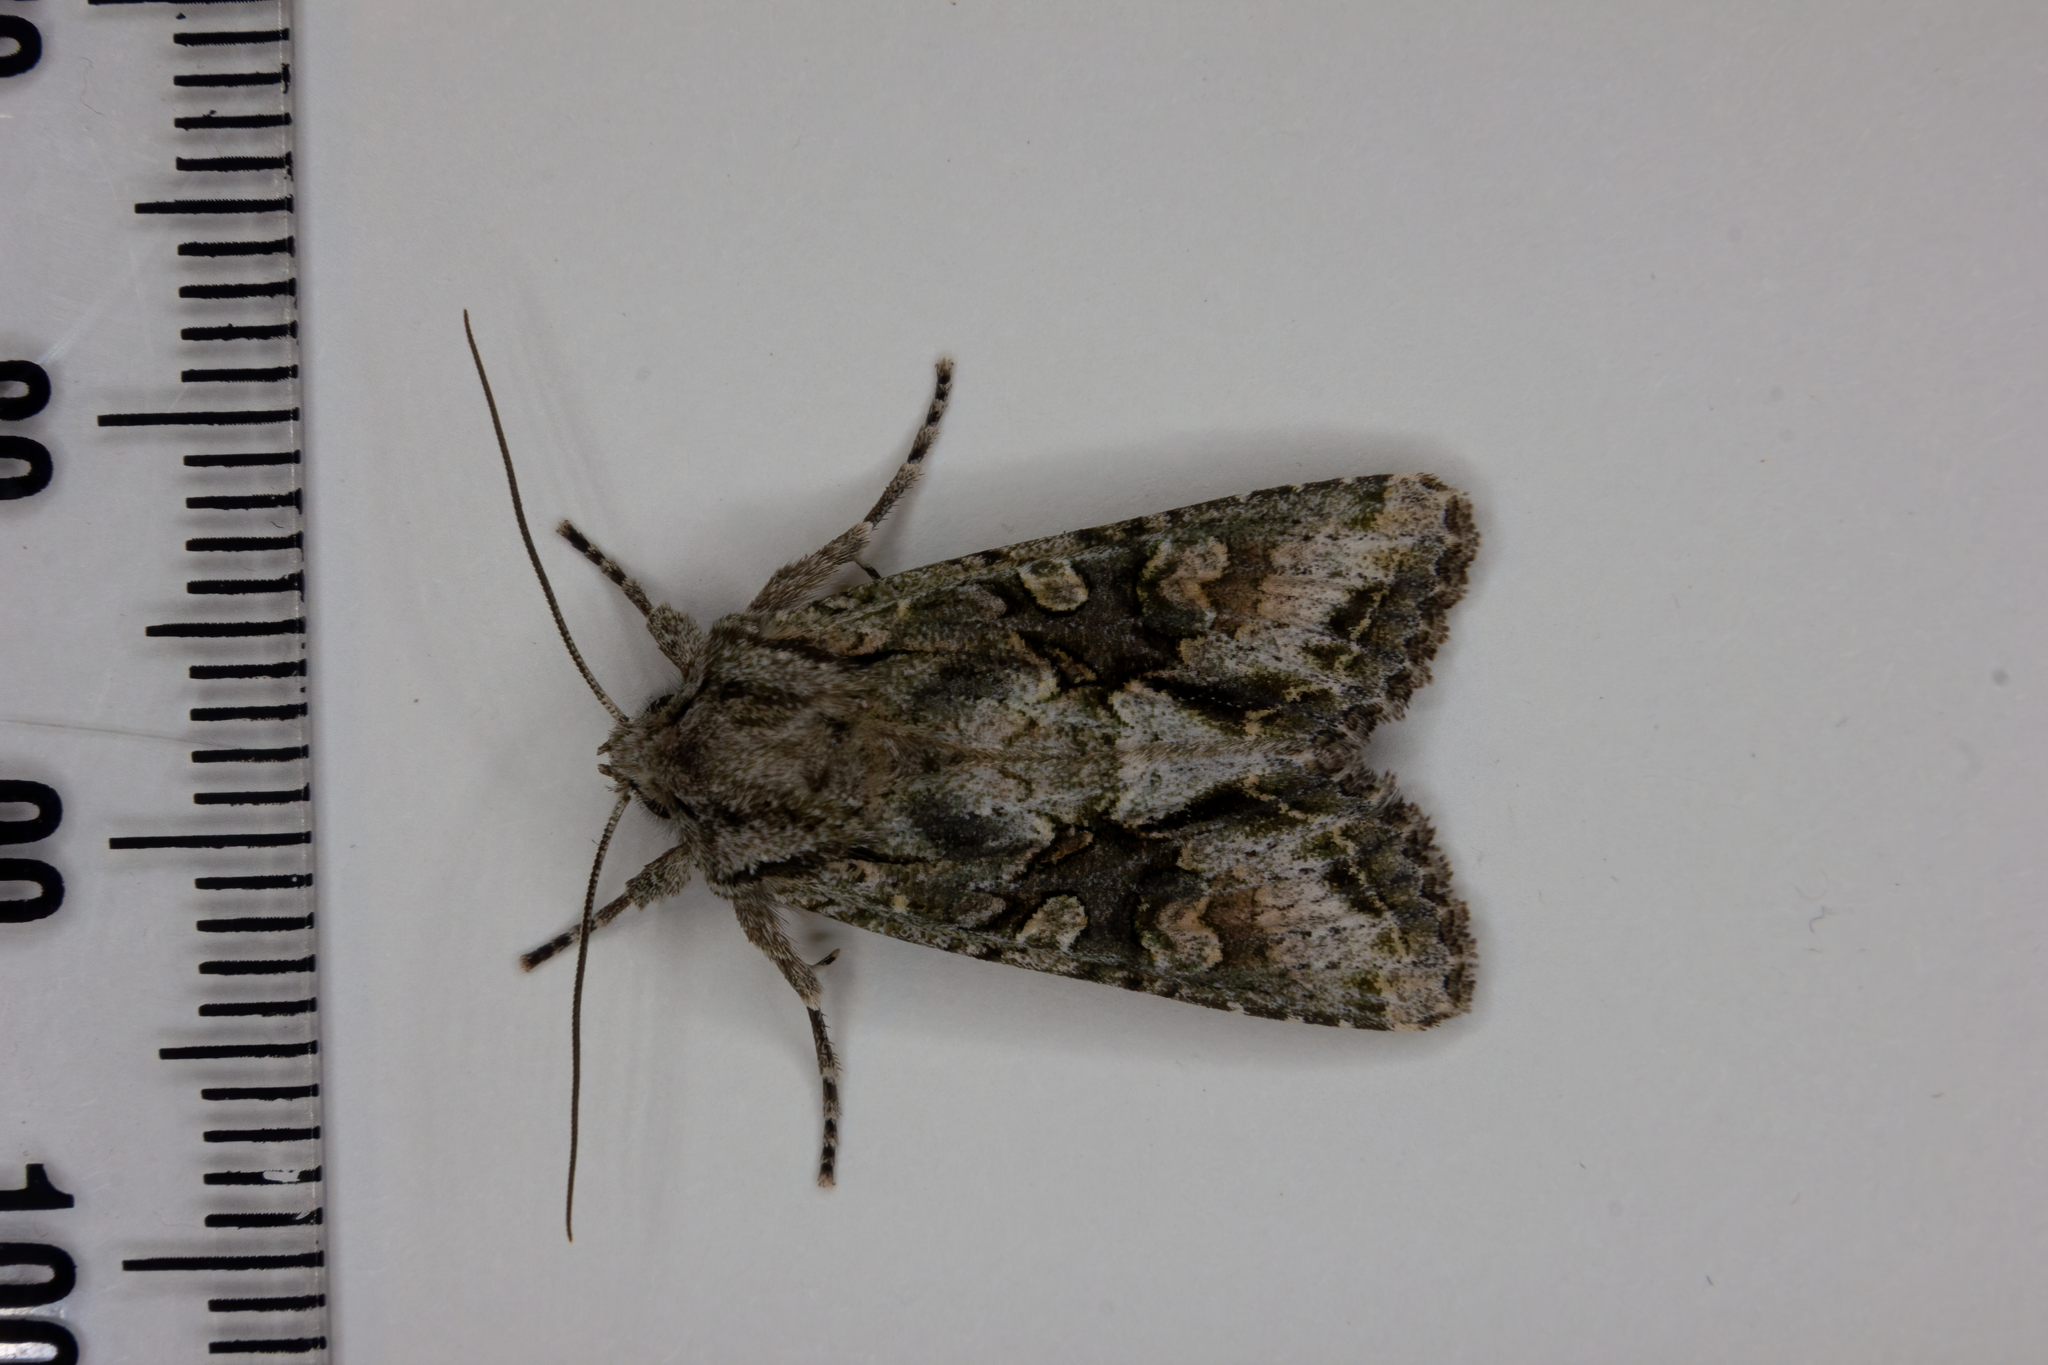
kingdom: Animalia
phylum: Arthropoda
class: Insecta
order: Lepidoptera
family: Noctuidae
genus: Ichneutica
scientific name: Ichneutica mutans
